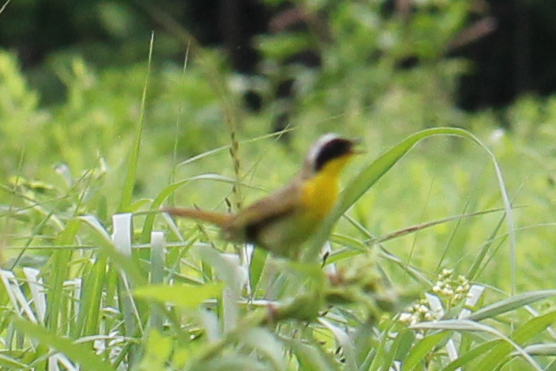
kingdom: Animalia
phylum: Chordata
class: Aves
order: Passeriformes
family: Parulidae
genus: Geothlypis
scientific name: Geothlypis trichas
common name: Common yellowthroat
